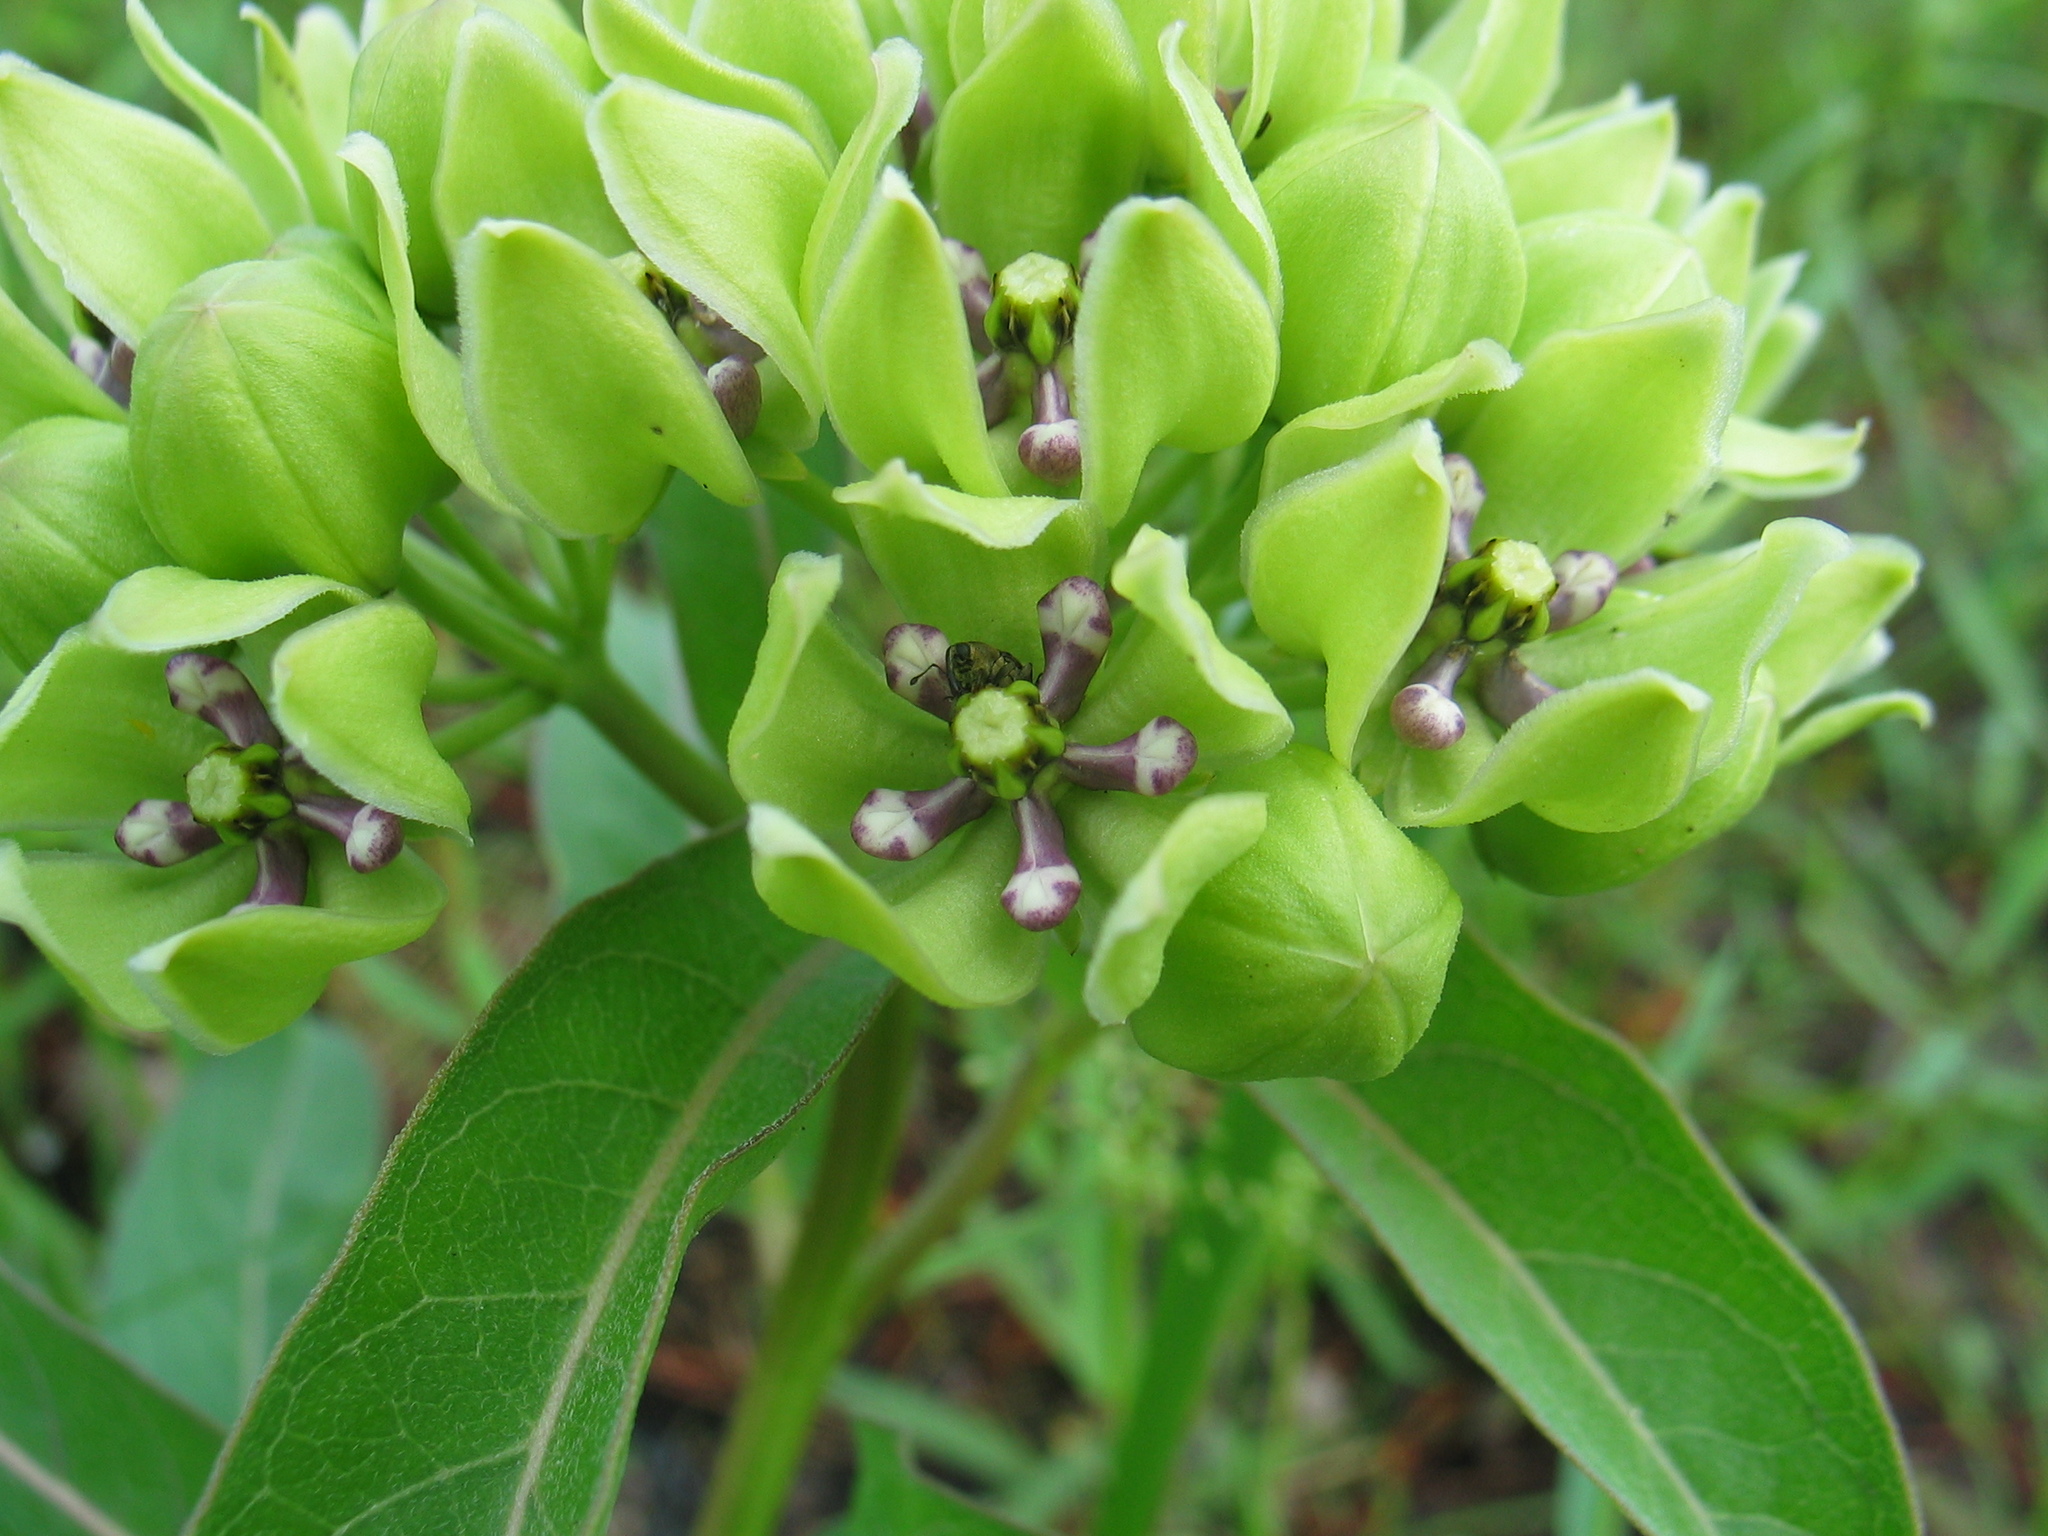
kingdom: Plantae
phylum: Tracheophyta
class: Magnoliopsida
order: Gentianales
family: Apocynaceae
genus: Asclepias
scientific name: Asclepias viridis
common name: Antelope-horns
